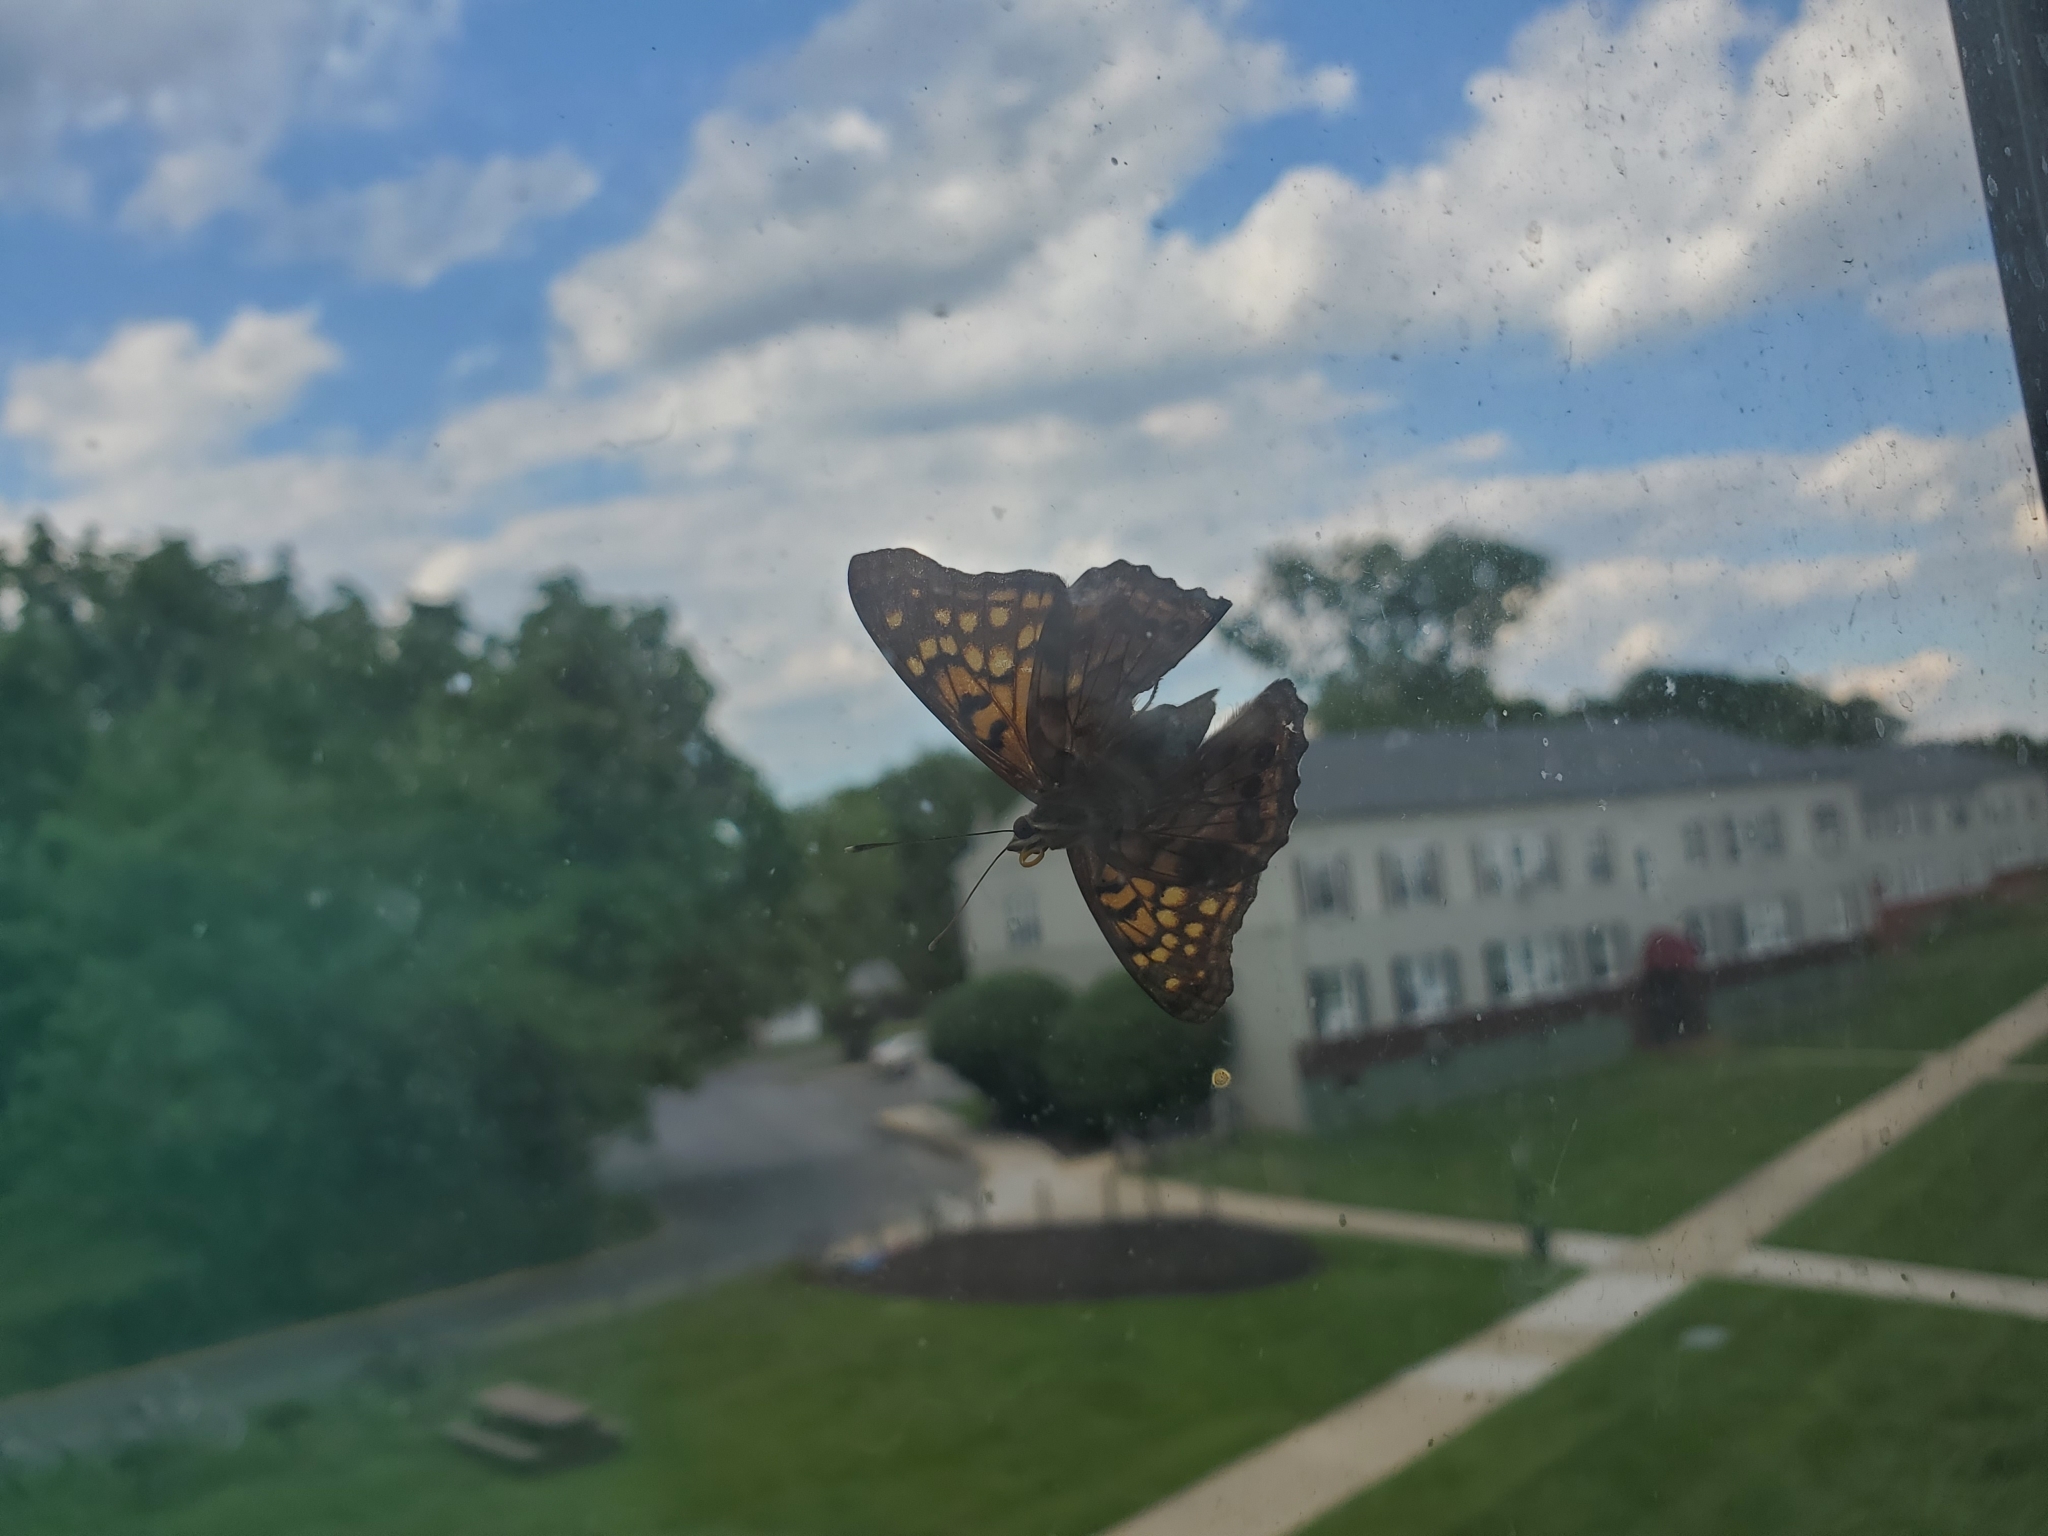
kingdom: Animalia
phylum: Arthropoda
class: Insecta
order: Lepidoptera
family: Nymphalidae
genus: Asterocampa
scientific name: Asterocampa clyton
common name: Tawny emperor
